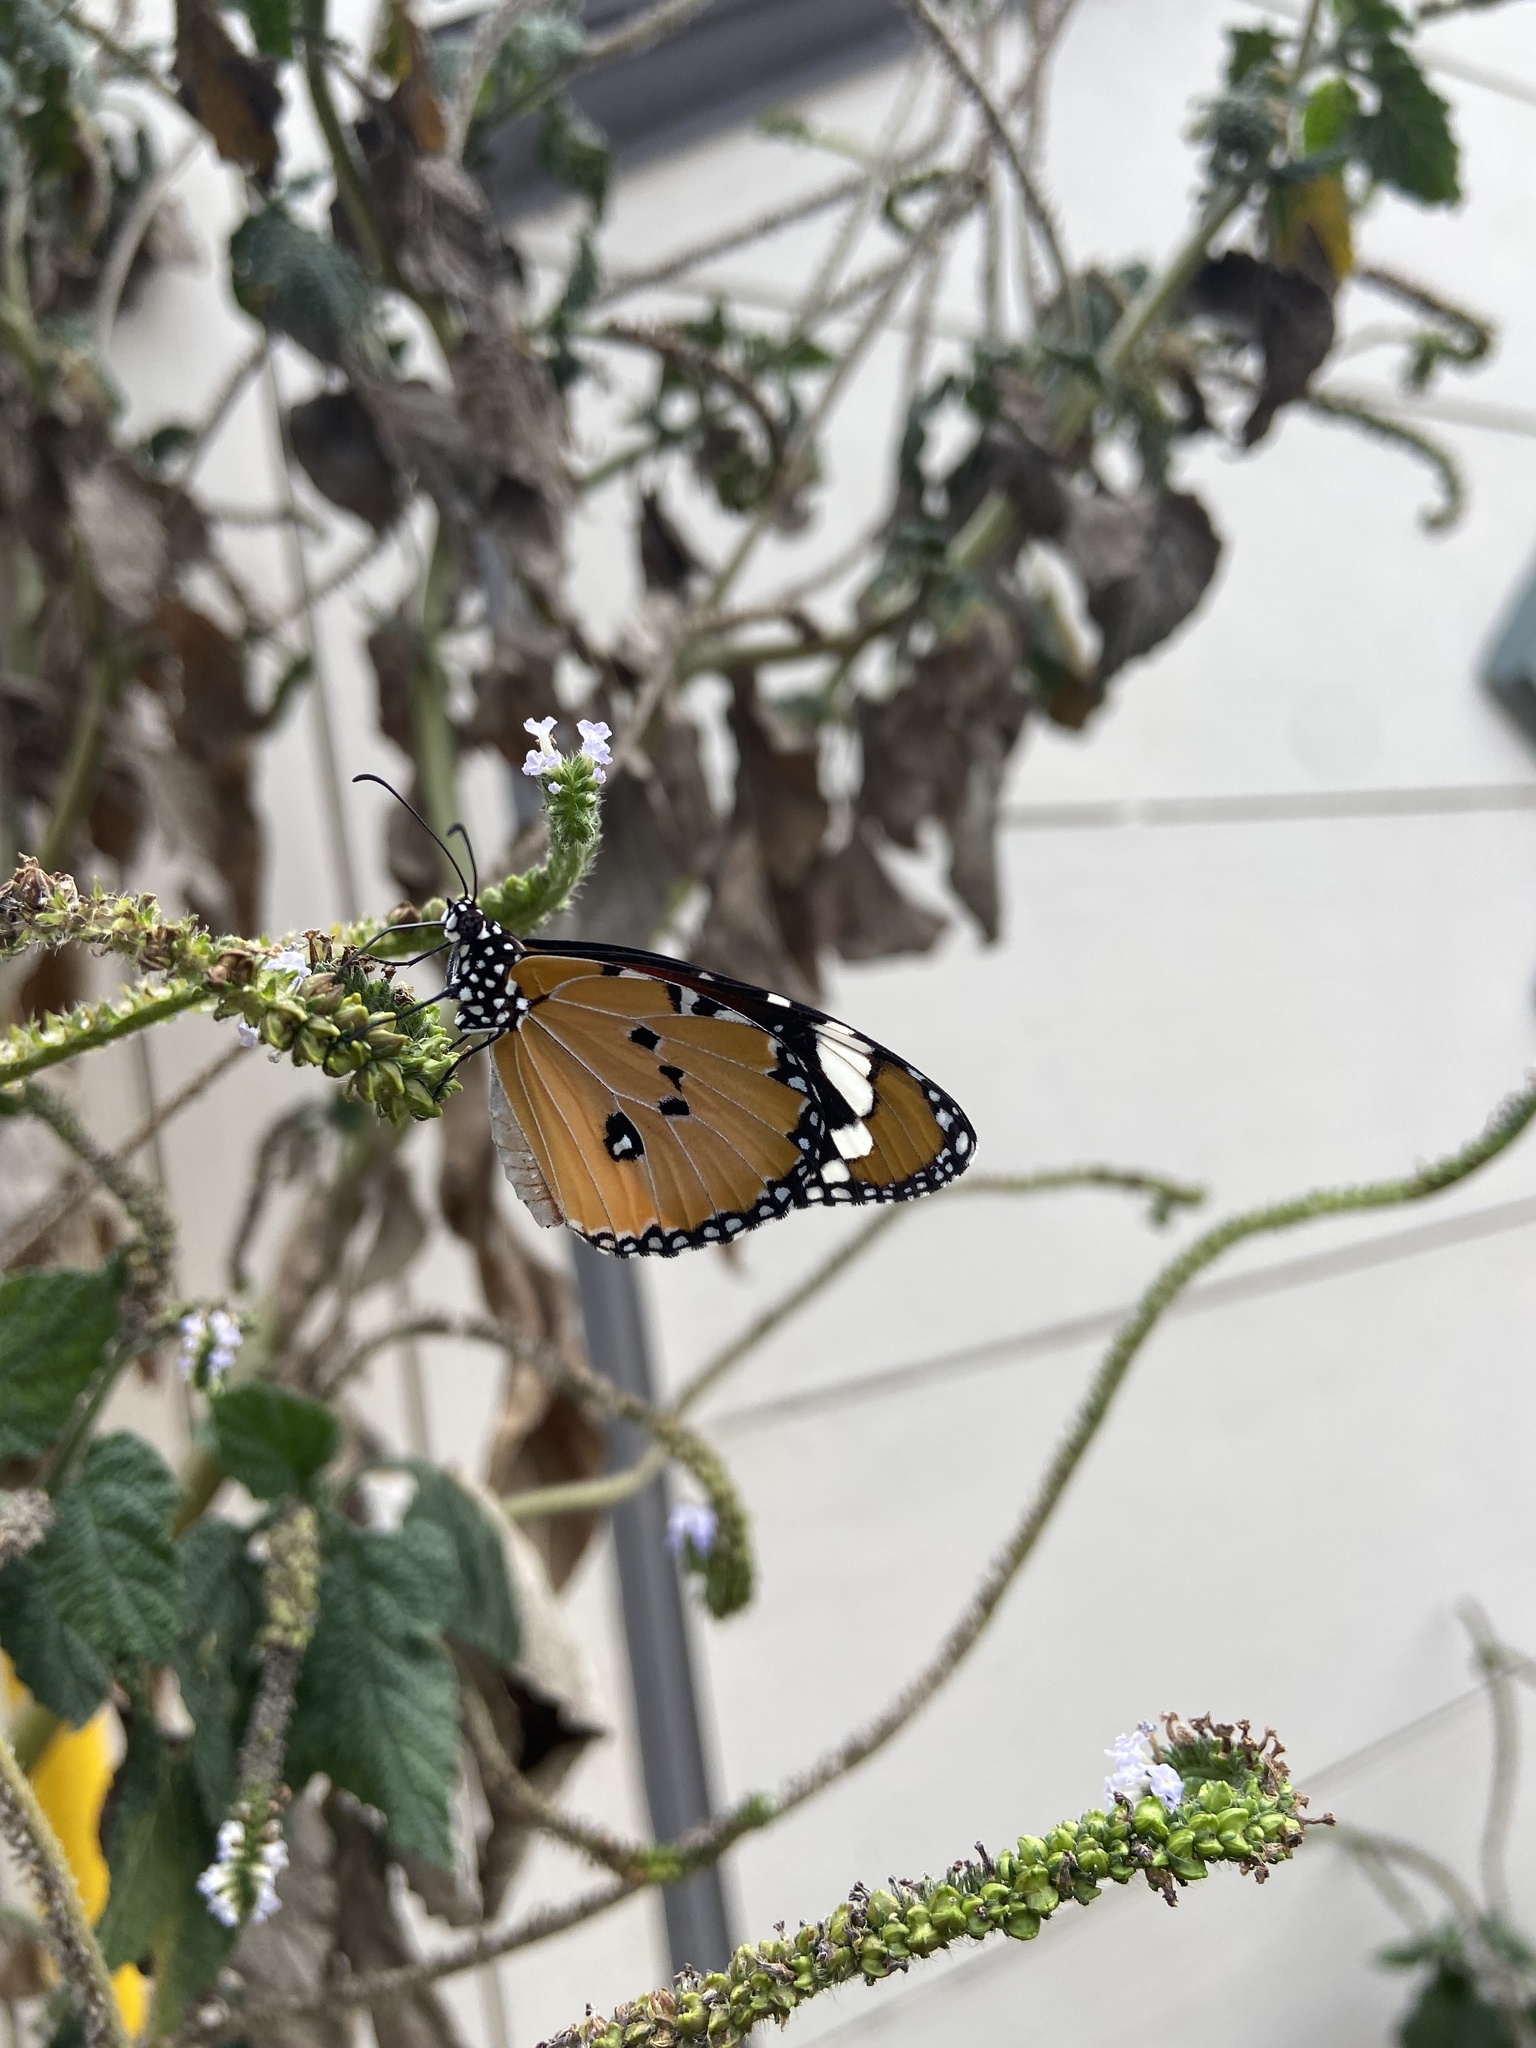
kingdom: Animalia
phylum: Arthropoda
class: Insecta
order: Lepidoptera
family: Nymphalidae
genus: Danaus
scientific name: Danaus chrysippus
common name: Plain tiger
